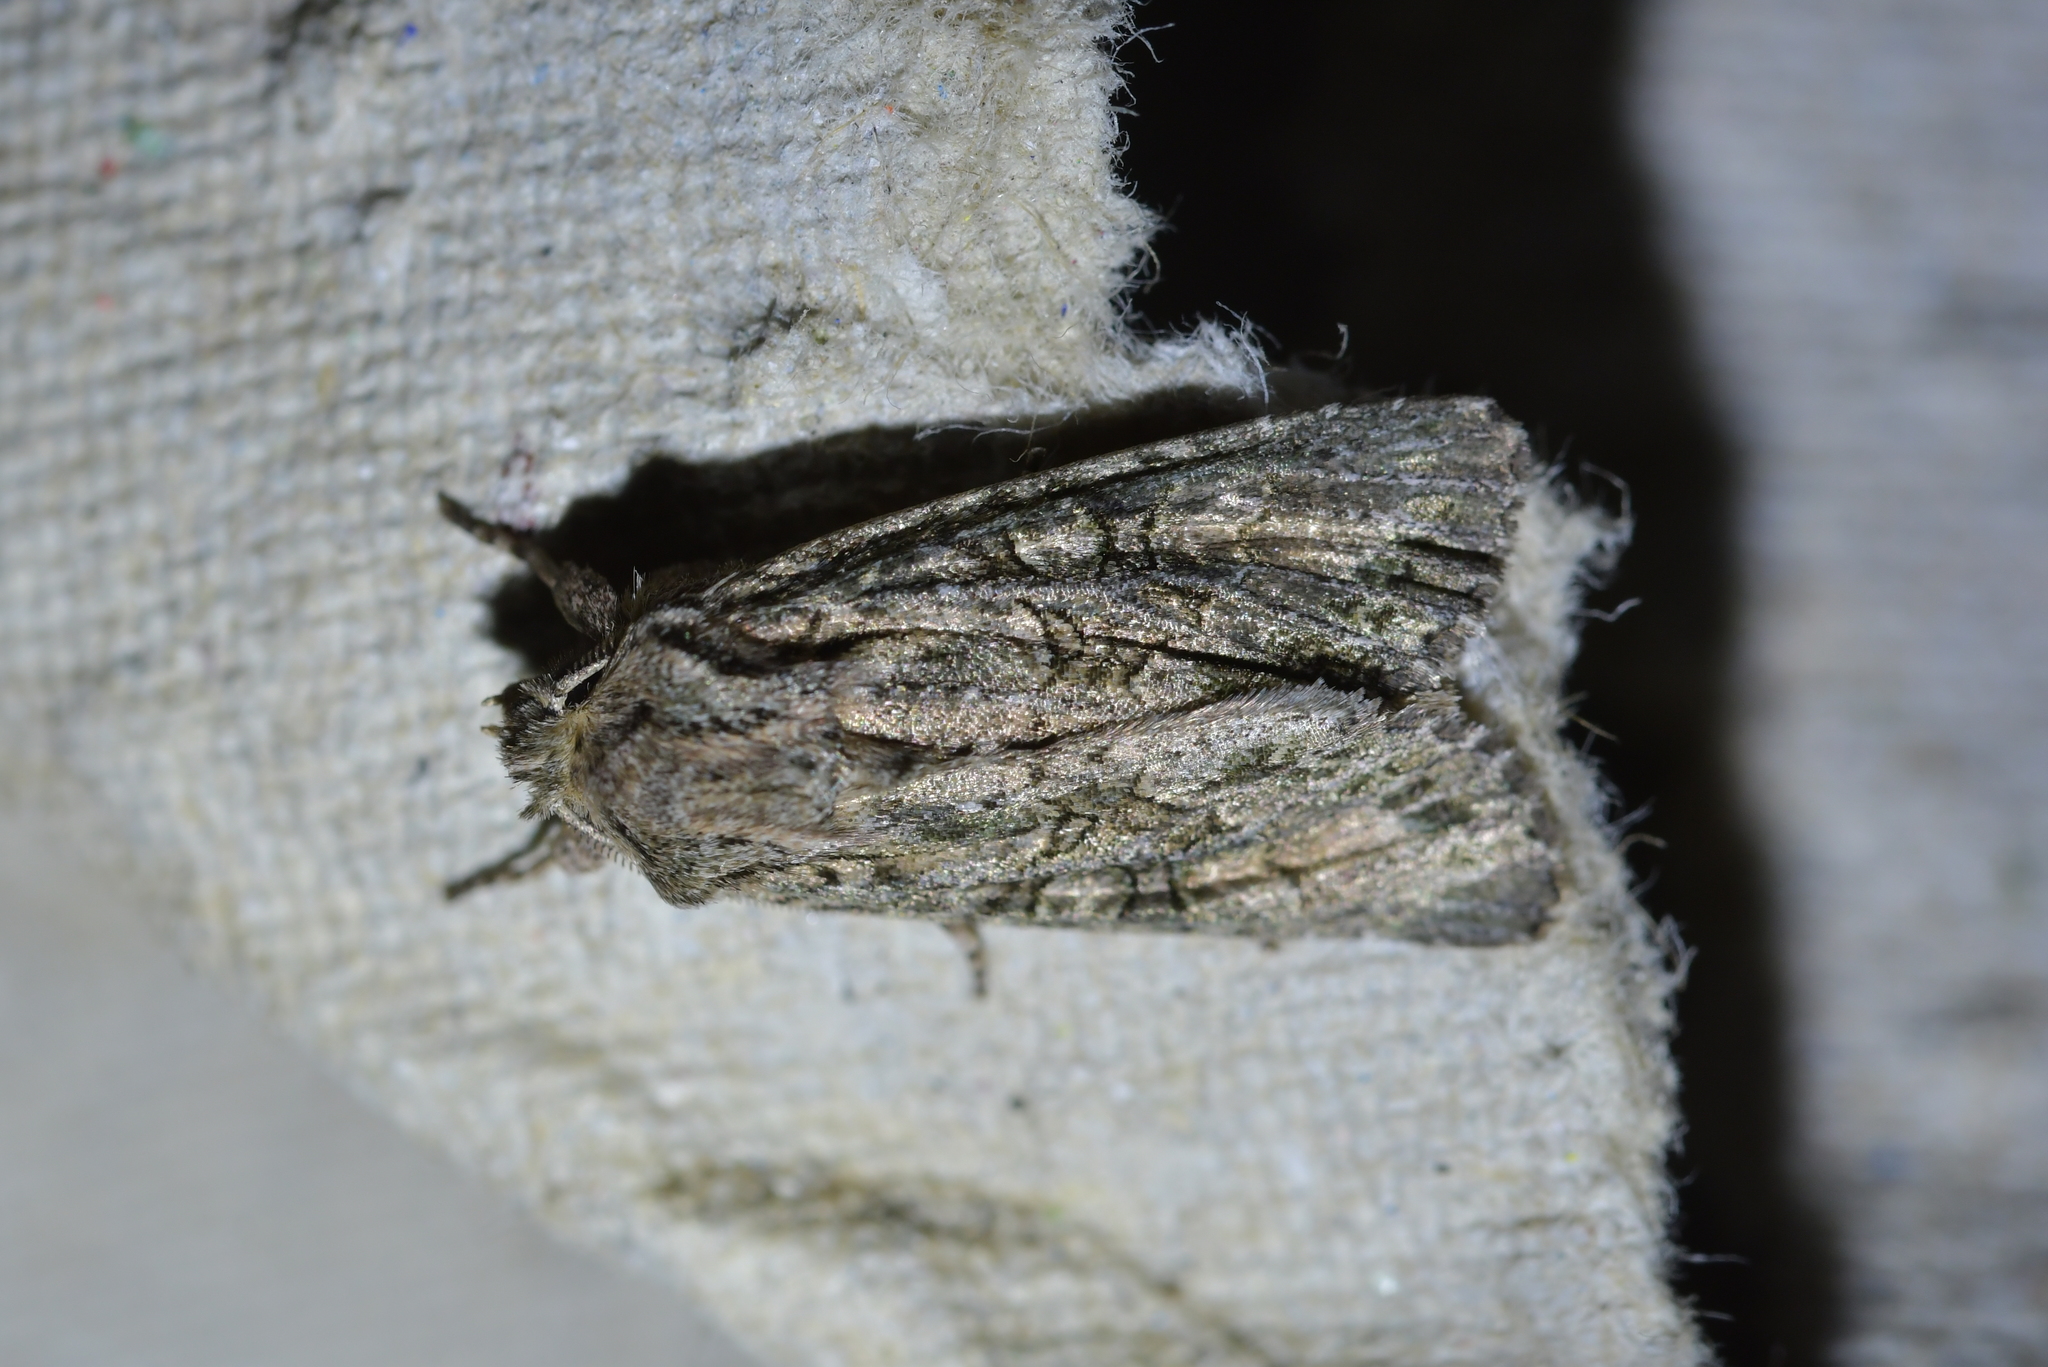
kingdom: Animalia
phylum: Arthropoda
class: Insecta
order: Lepidoptera
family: Noctuidae
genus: Ichneutica
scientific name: Ichneutica mutans
